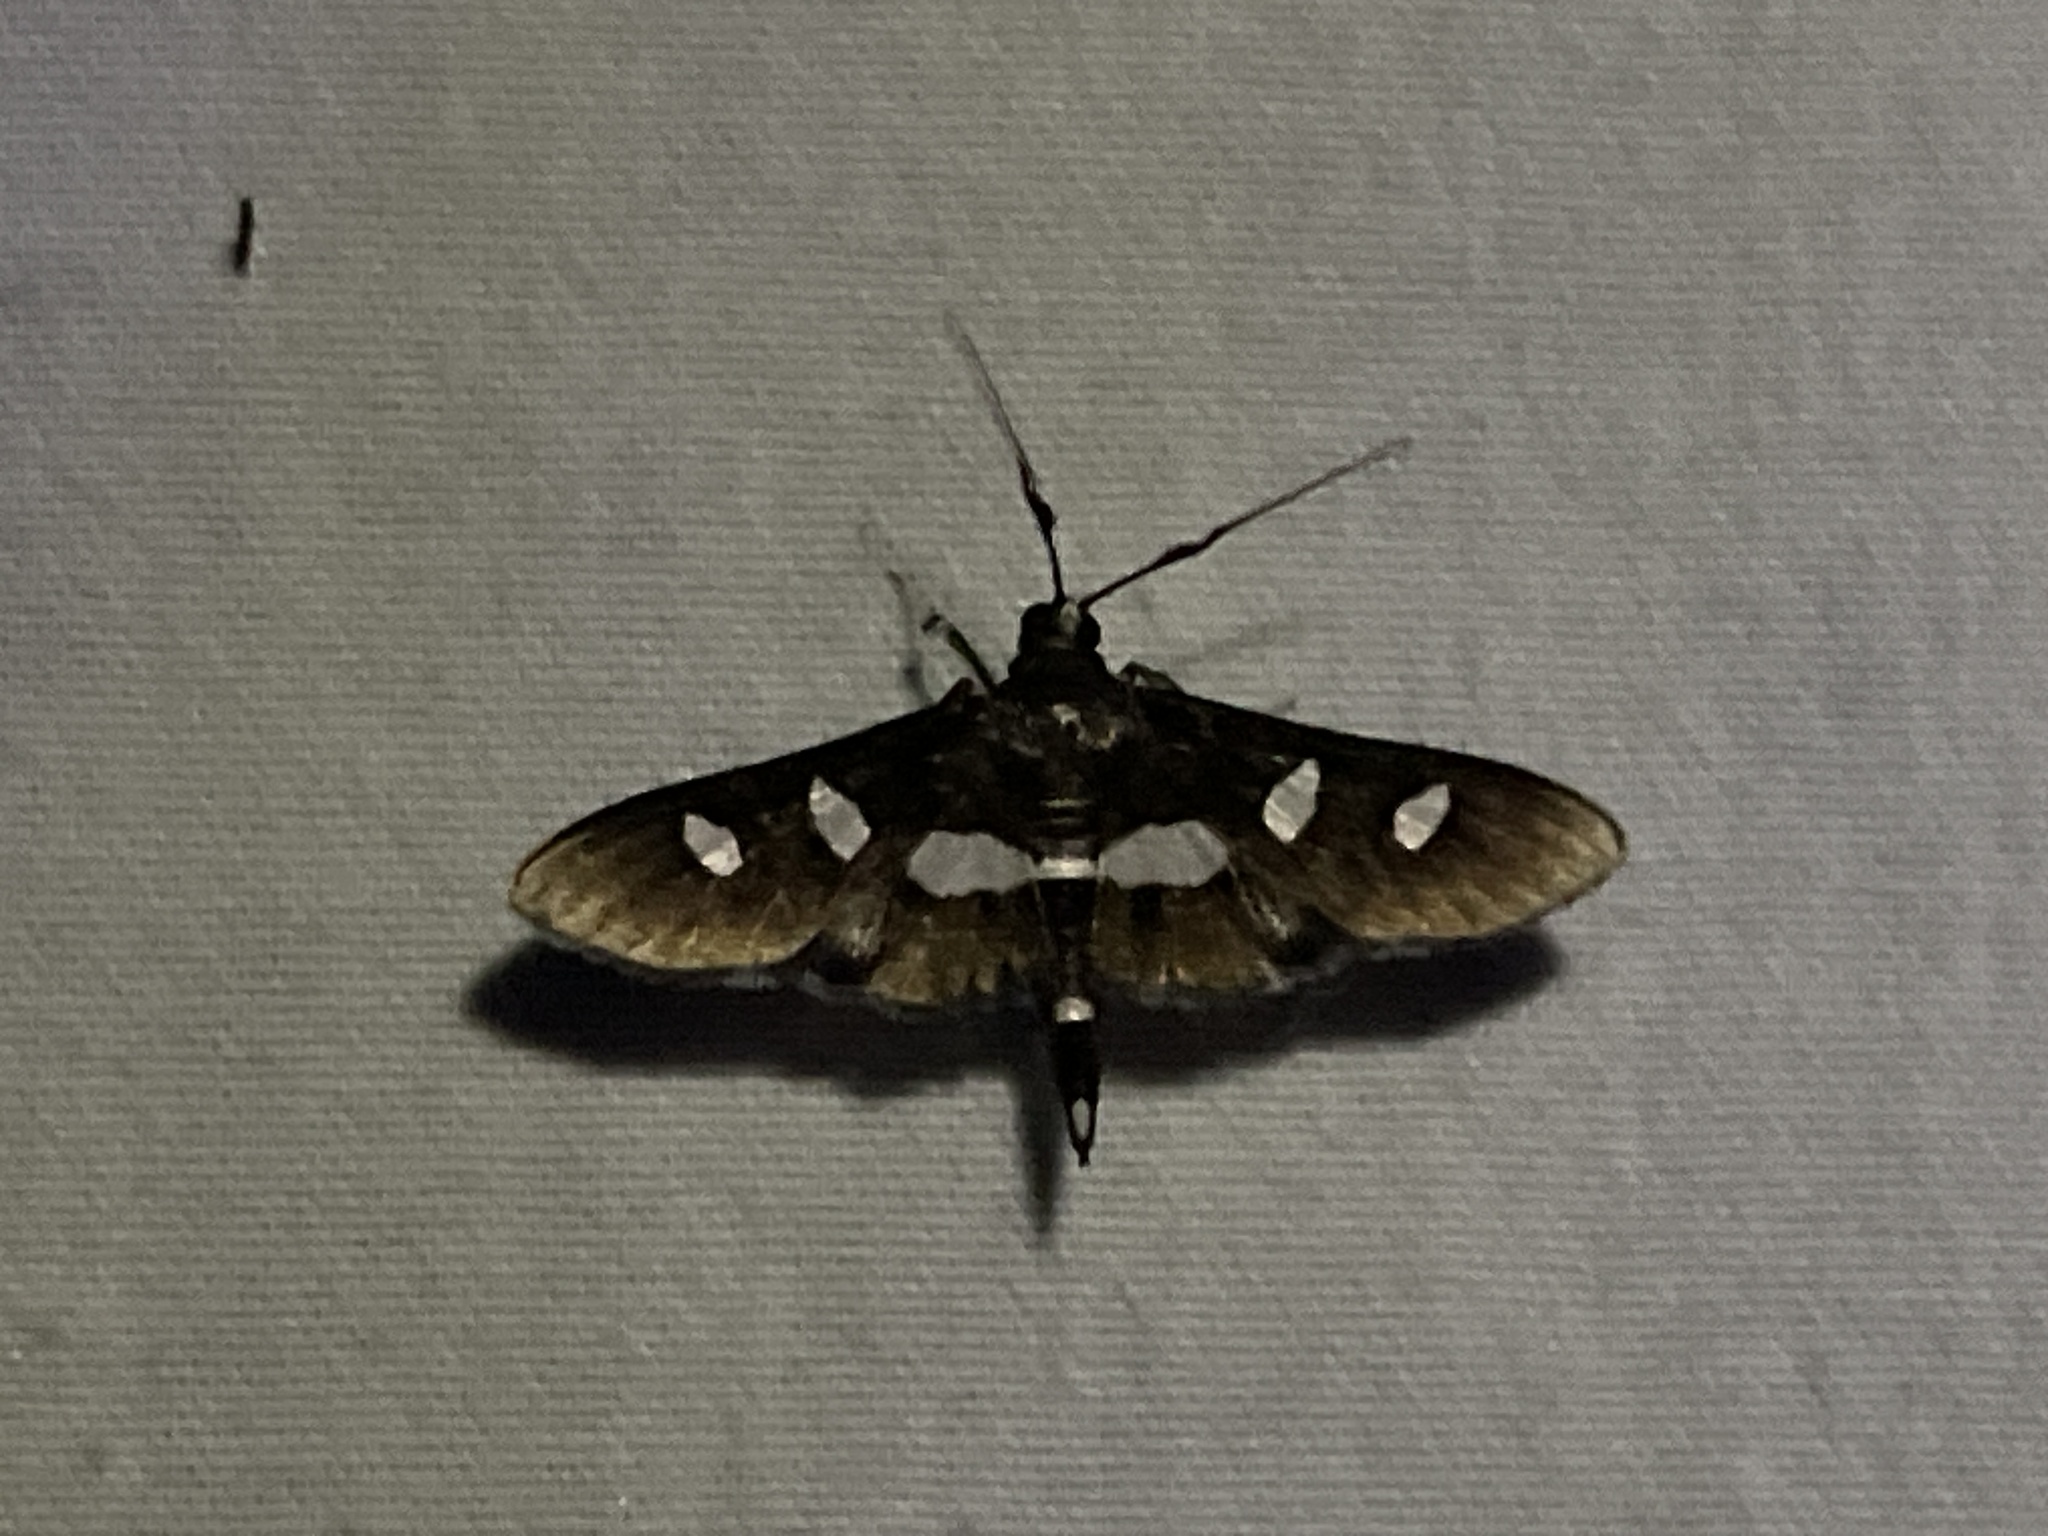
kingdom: Animalia
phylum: Arthropoda
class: Insecta
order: Lepidoptera
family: Crambidae
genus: Desmia
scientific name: Desmia funeralis
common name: Grape leaf folder moth
